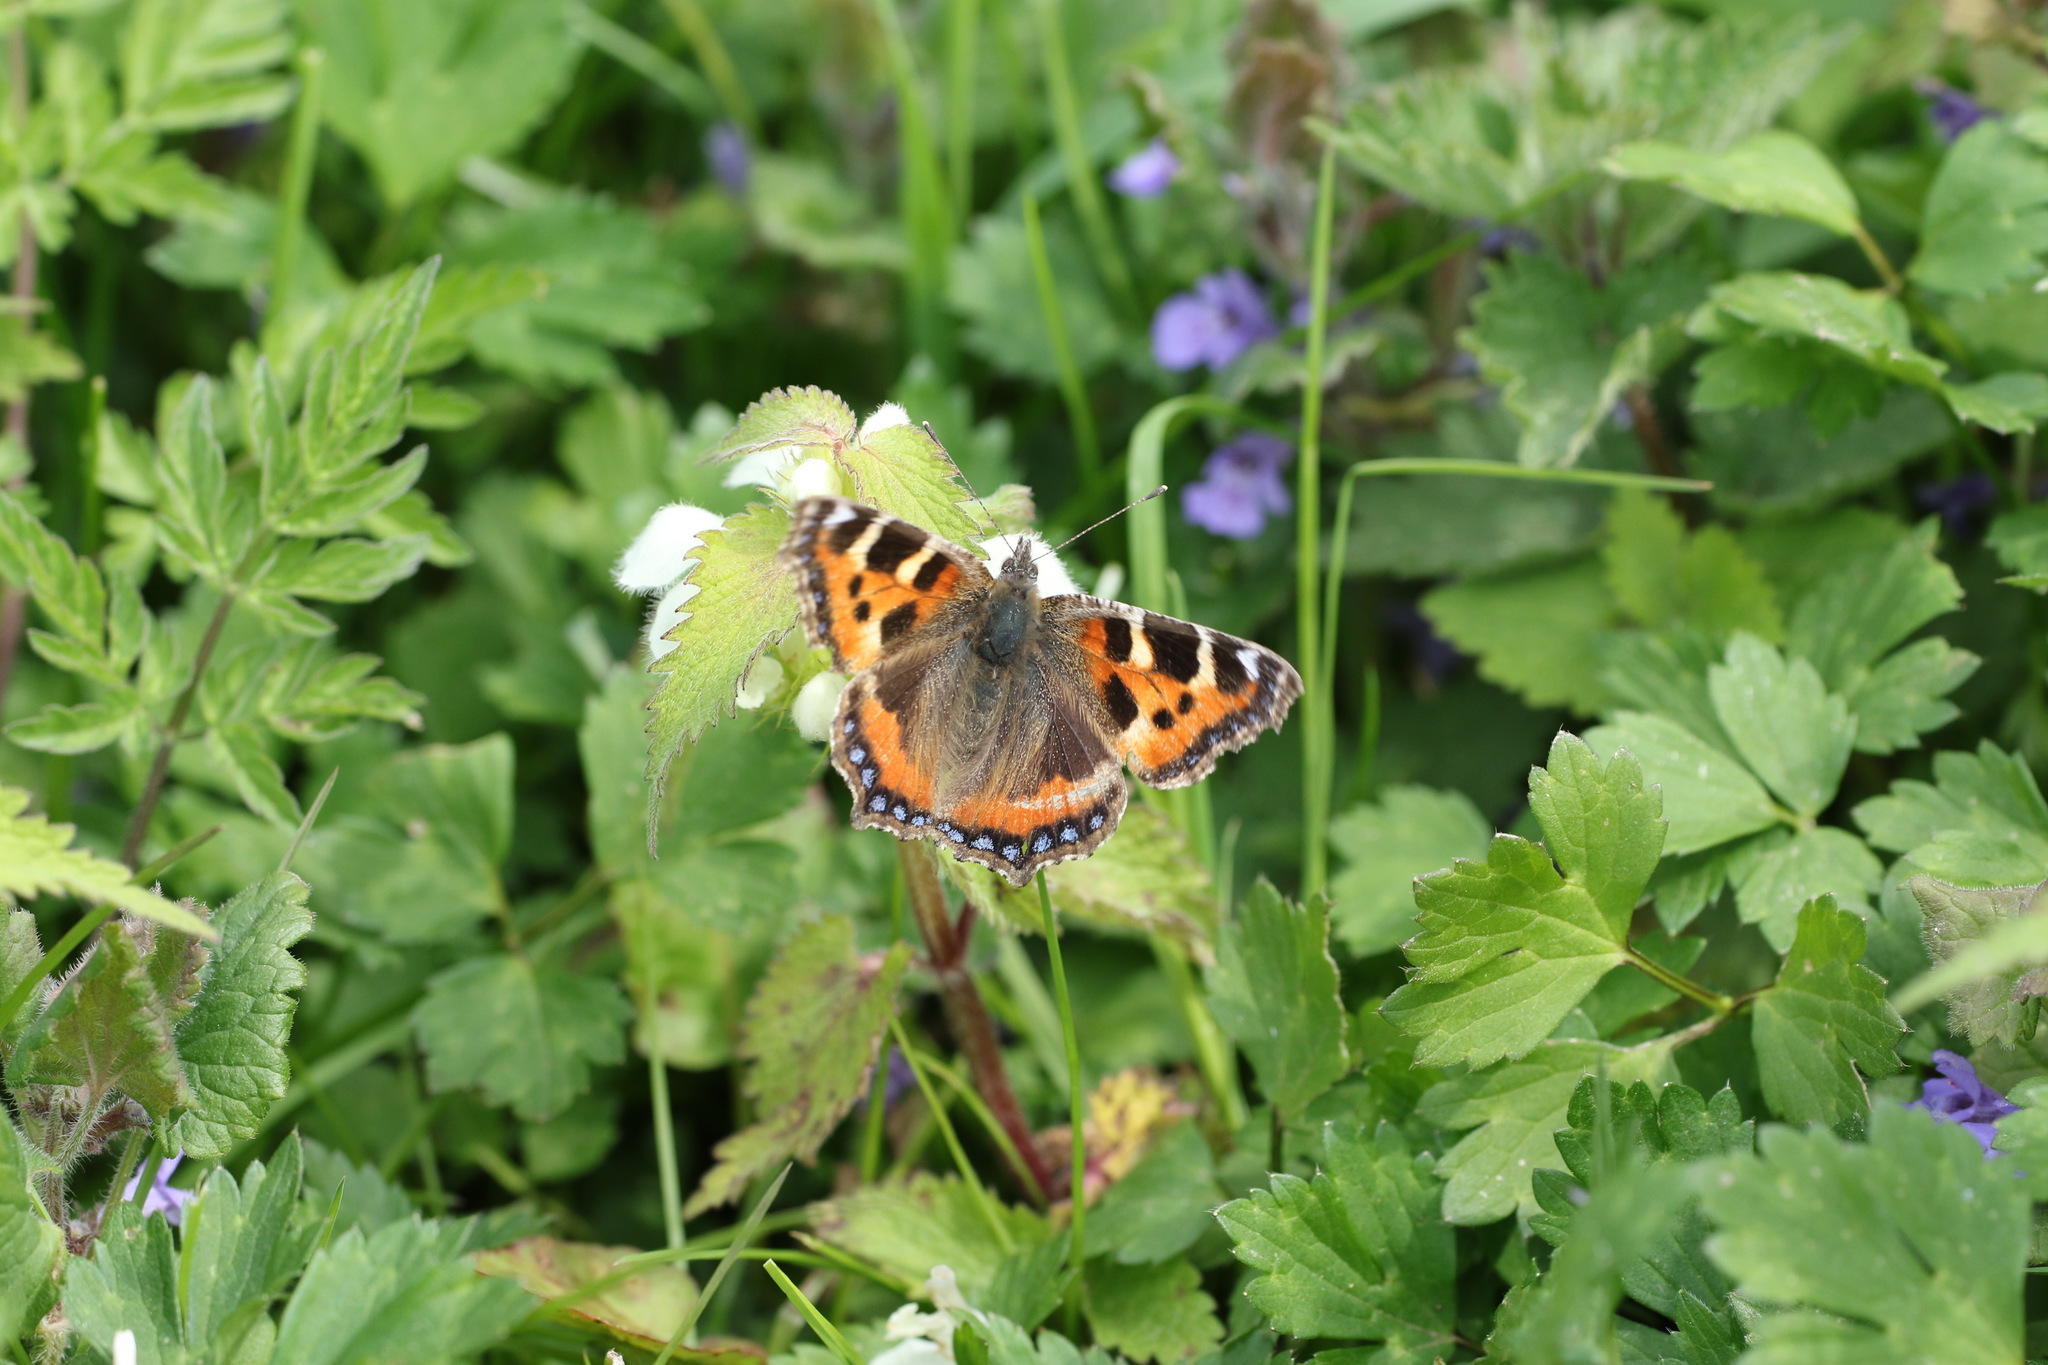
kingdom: Animalia
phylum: Arthropoda
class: Insecta
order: Lepidoptera
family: Nymphalidae
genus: Aglais
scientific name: Aglais urticae
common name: Small tortoiseshell
